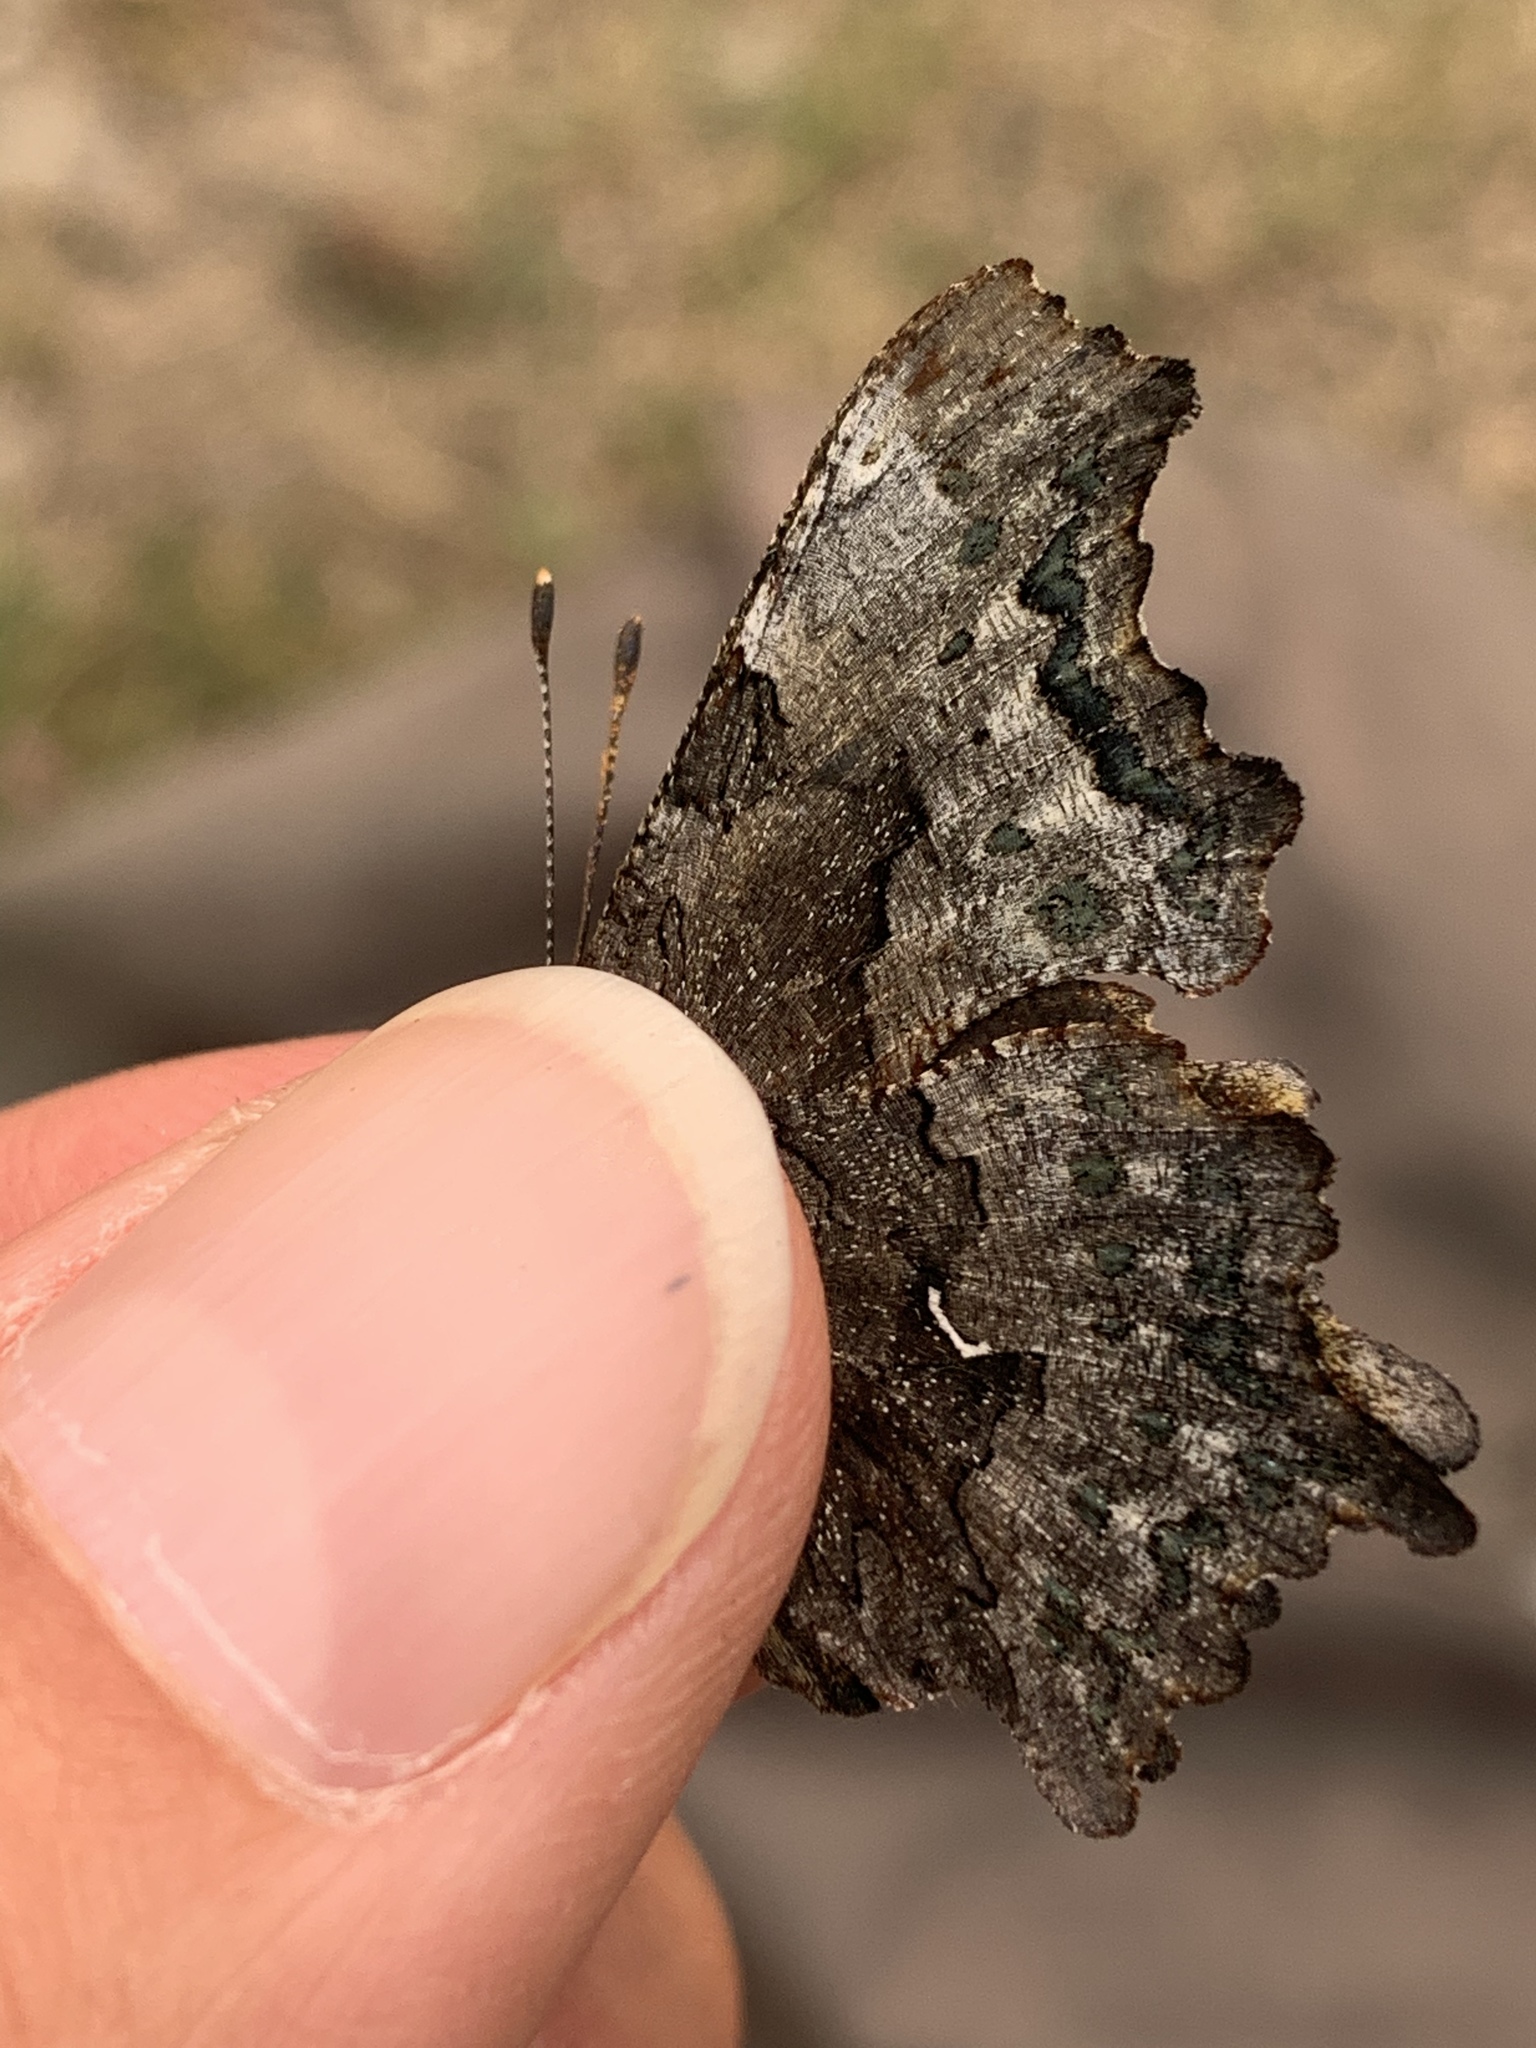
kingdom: Animalia
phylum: Arthropoda
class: Insecta
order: Lepidoptera
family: Nymphalidae
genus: Polygonia
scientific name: Polygonia faunus
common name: Green comma
